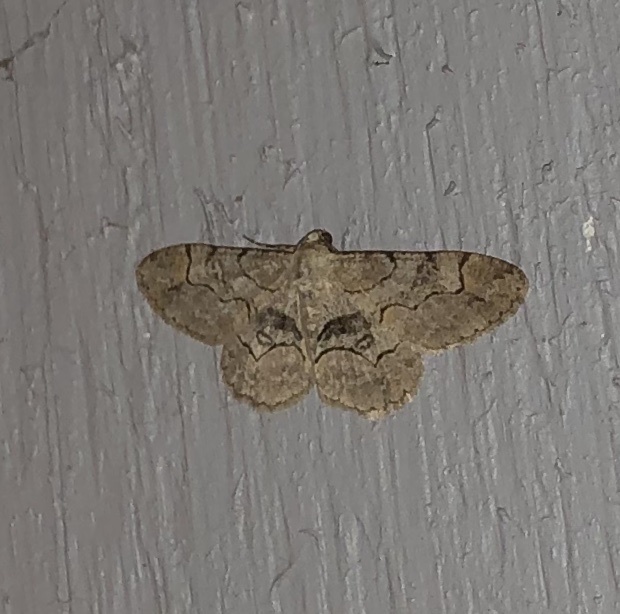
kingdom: Animalia
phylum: Arthropoda
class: Insecta
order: Lepidoptera
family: Geometridae
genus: Iridopsis
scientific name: Iridopsis larvaria
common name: Bent-line gray
